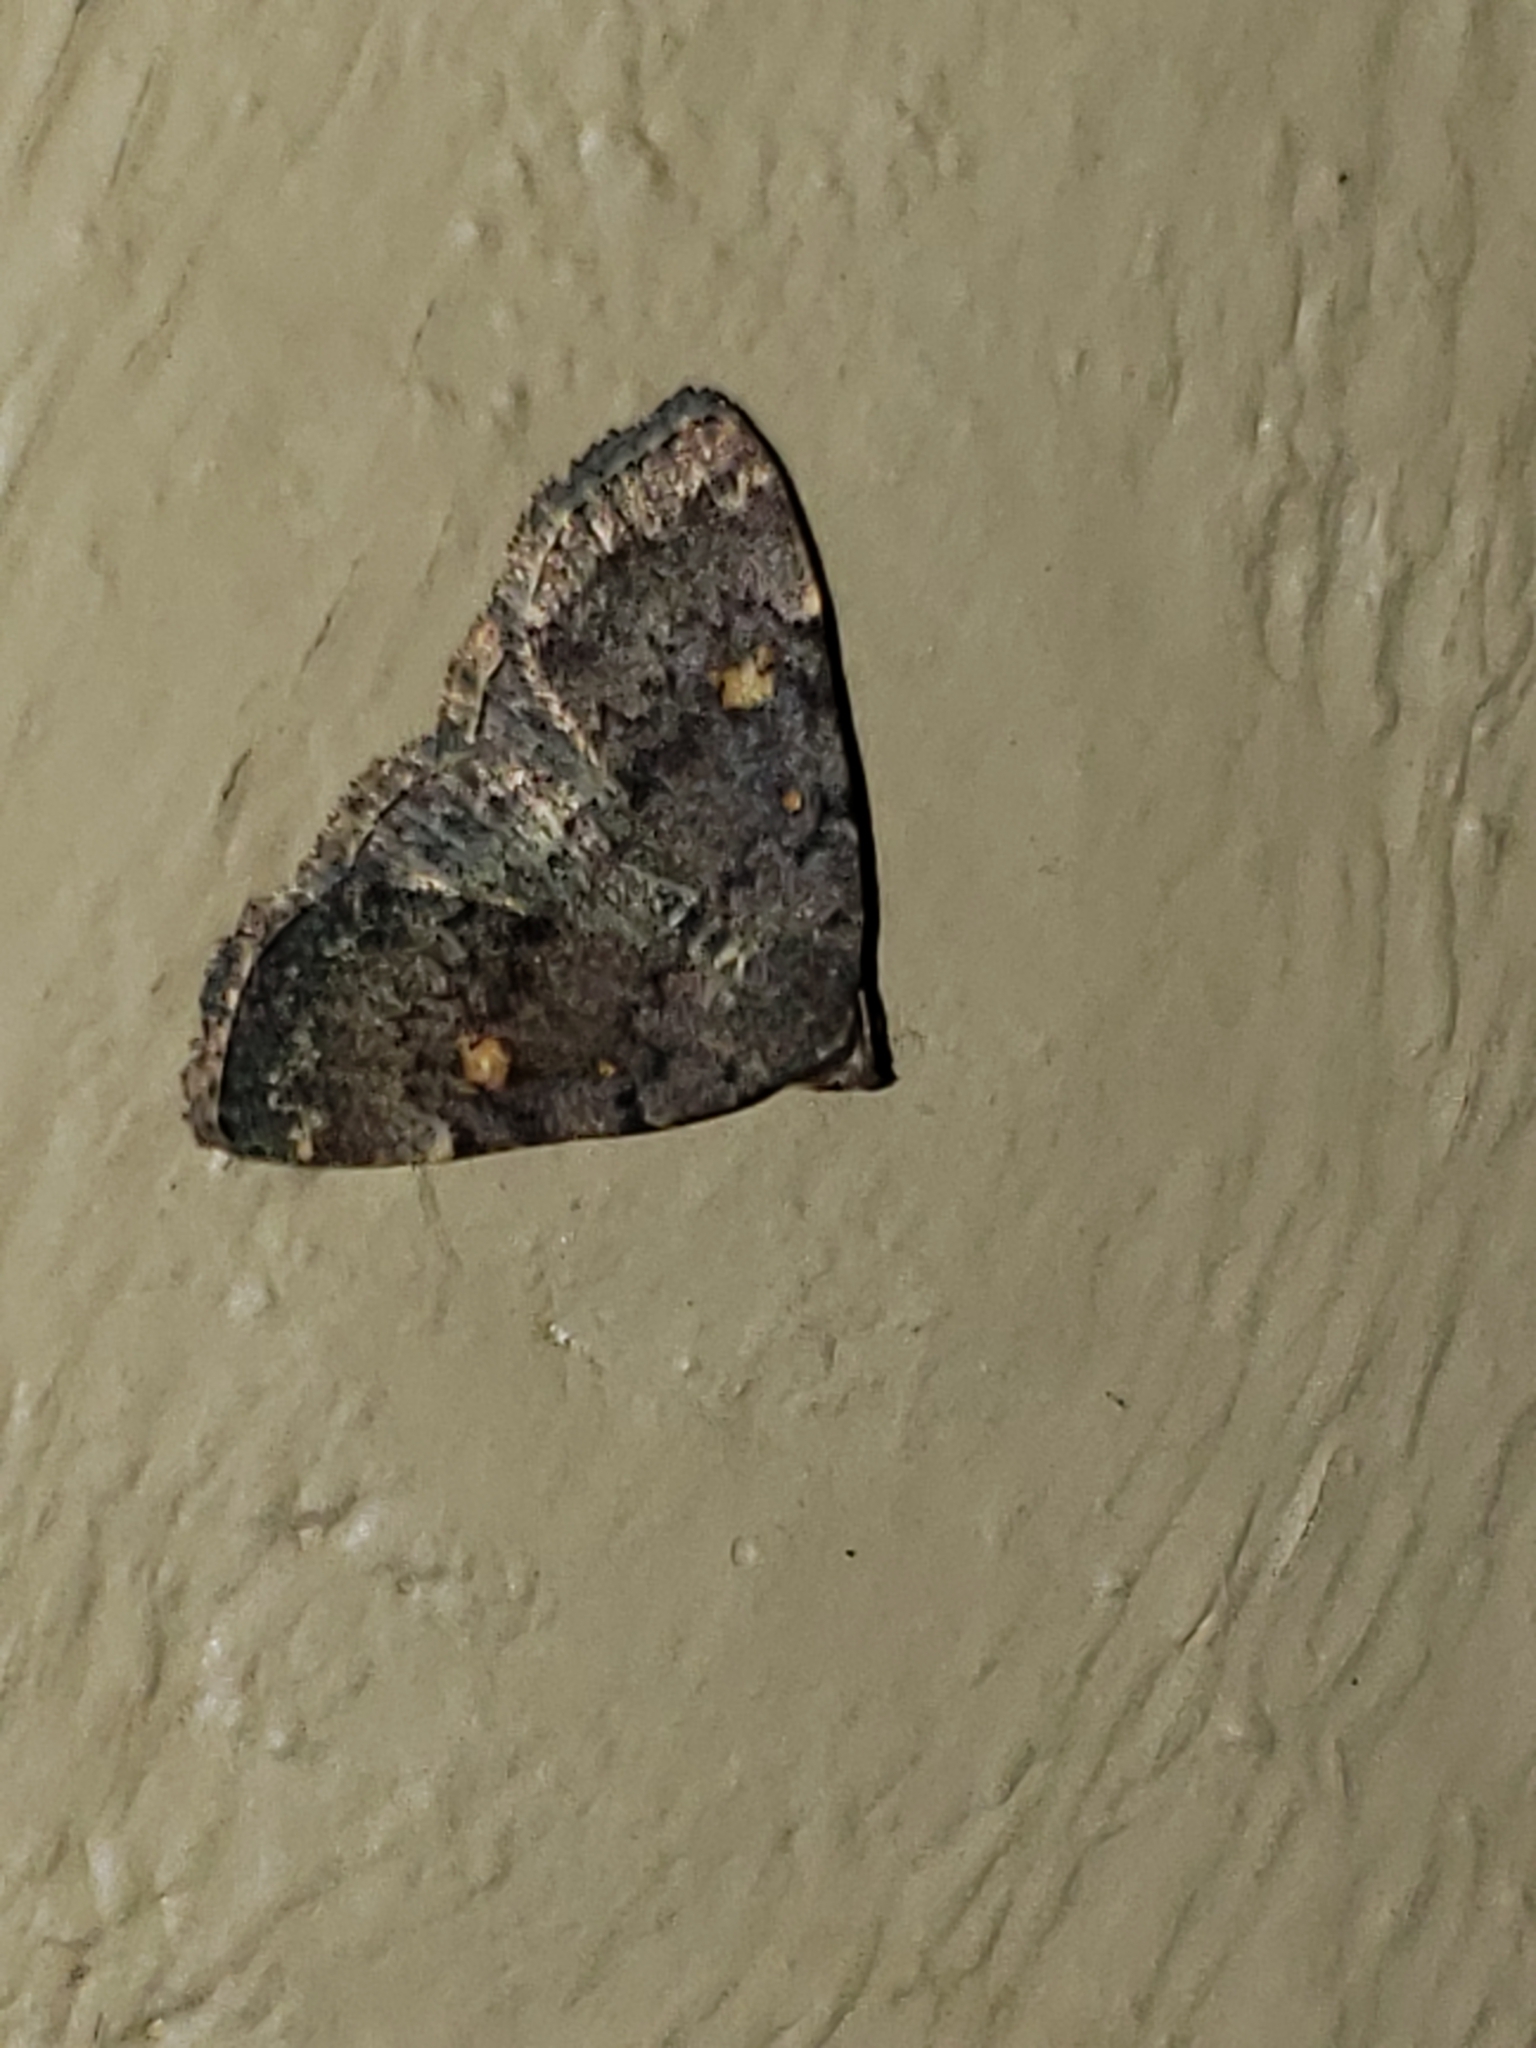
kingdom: Animalia
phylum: Arthropoda
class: Insecta
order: Lepidoptera
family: Erebidae
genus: Idia
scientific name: Idia aemula
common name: Common idia moth
